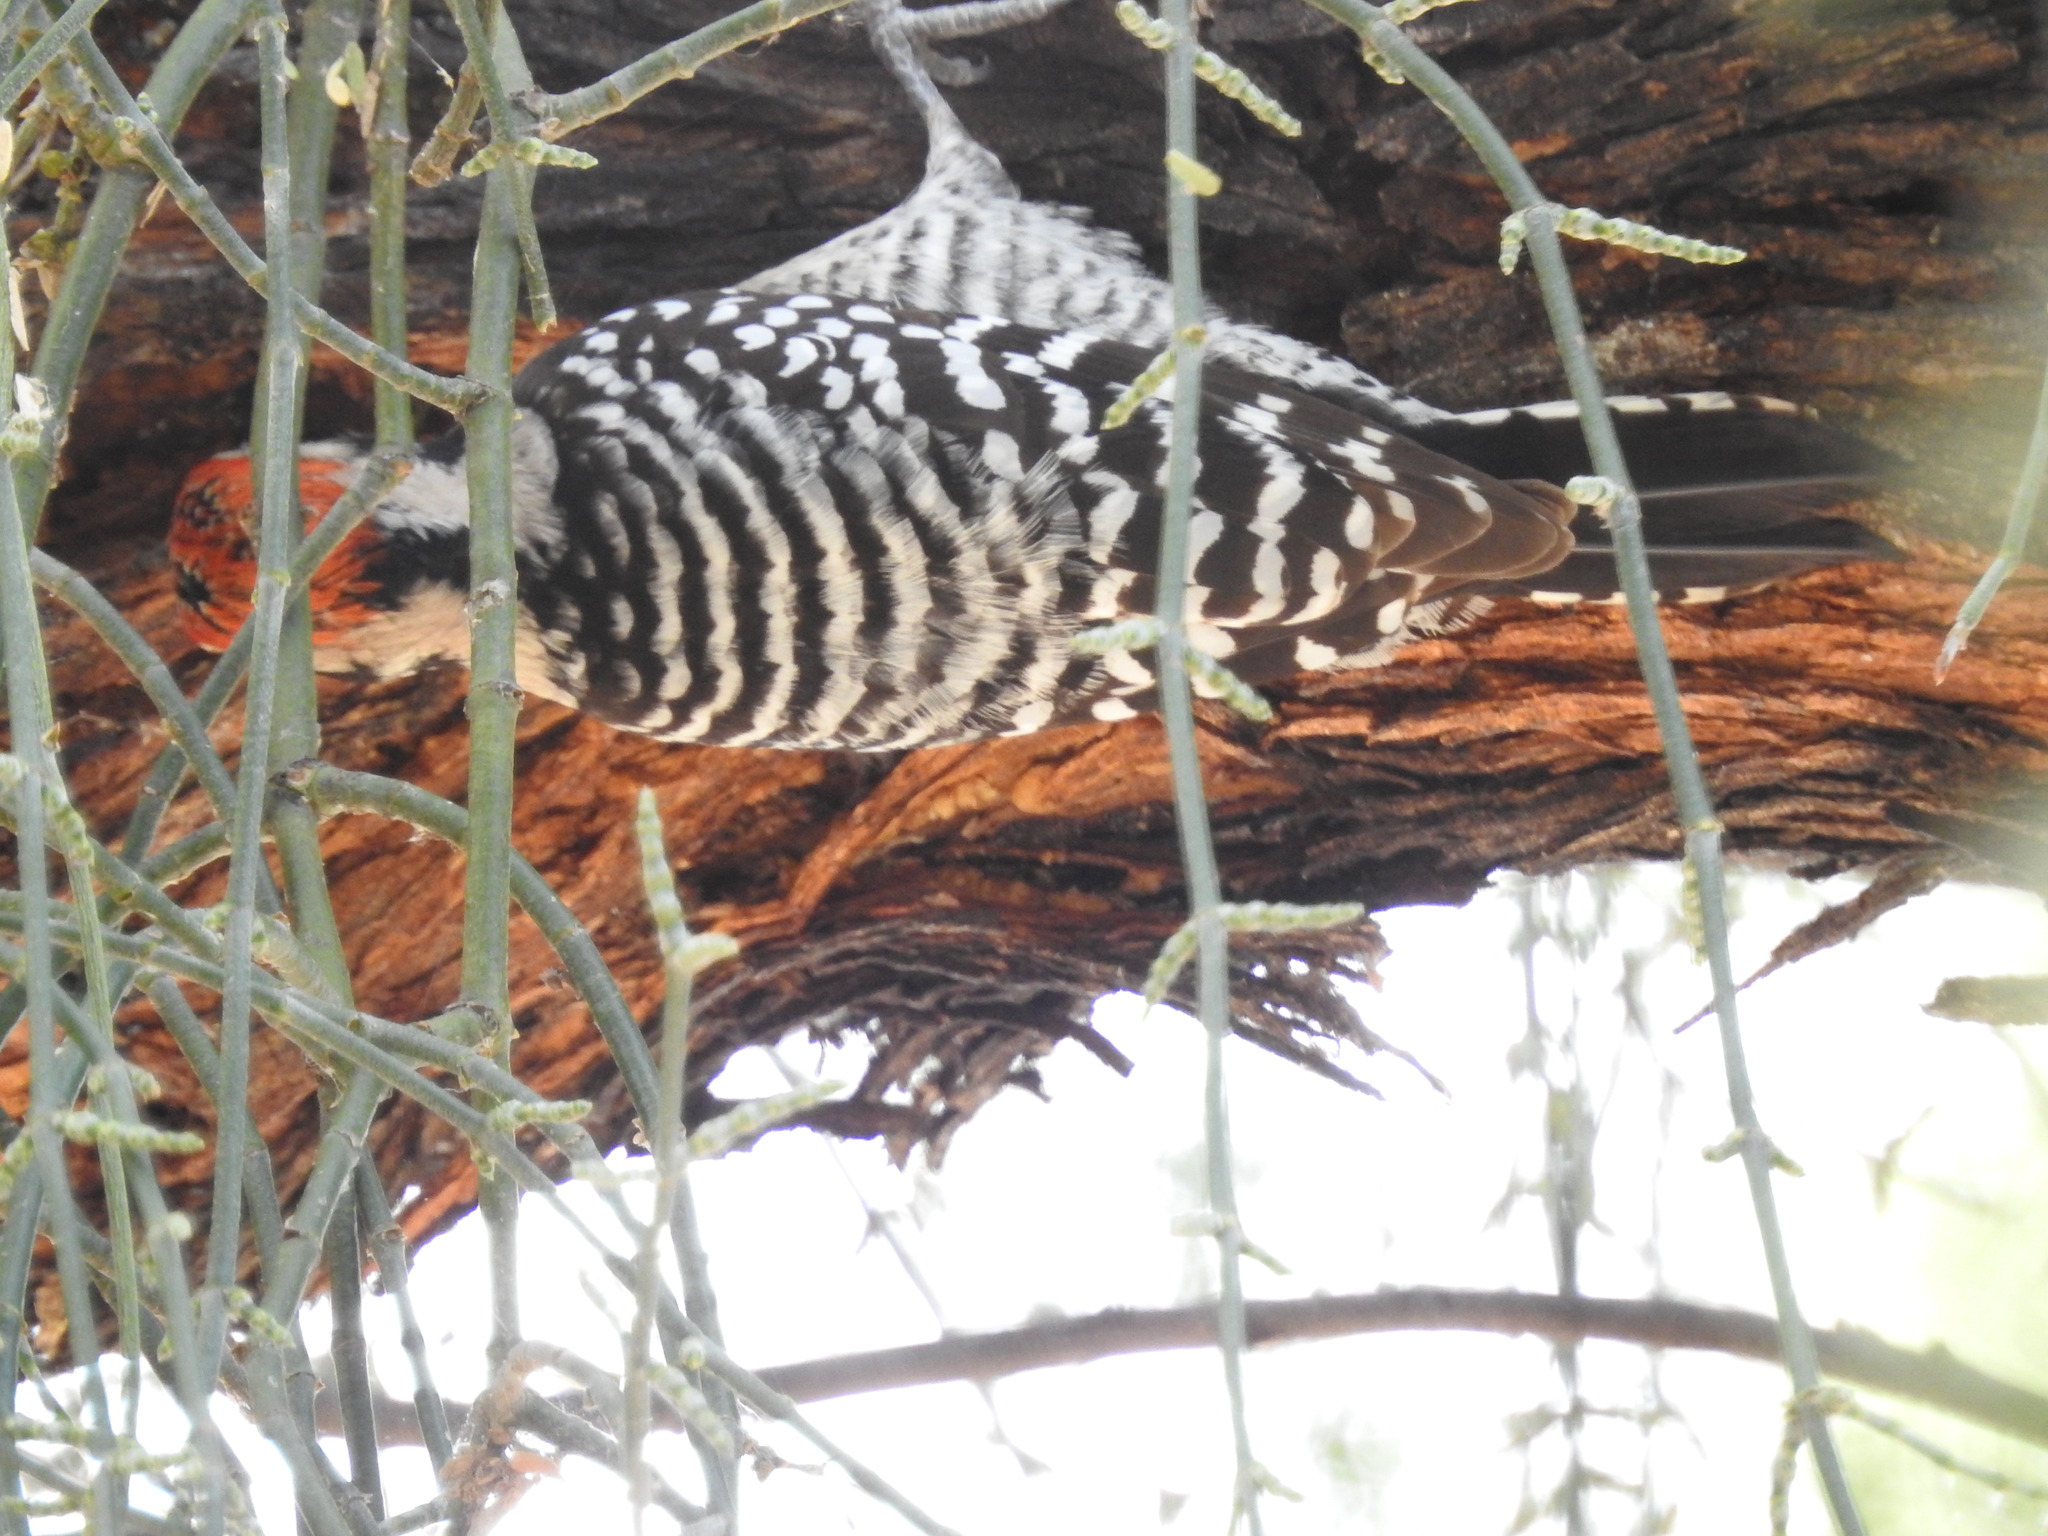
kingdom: Animalia
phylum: Chordata
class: Aves
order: Piciformes
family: Picidae
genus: Dryobates
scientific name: Dryobates scalaris
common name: Ladder-backed woodpecker
